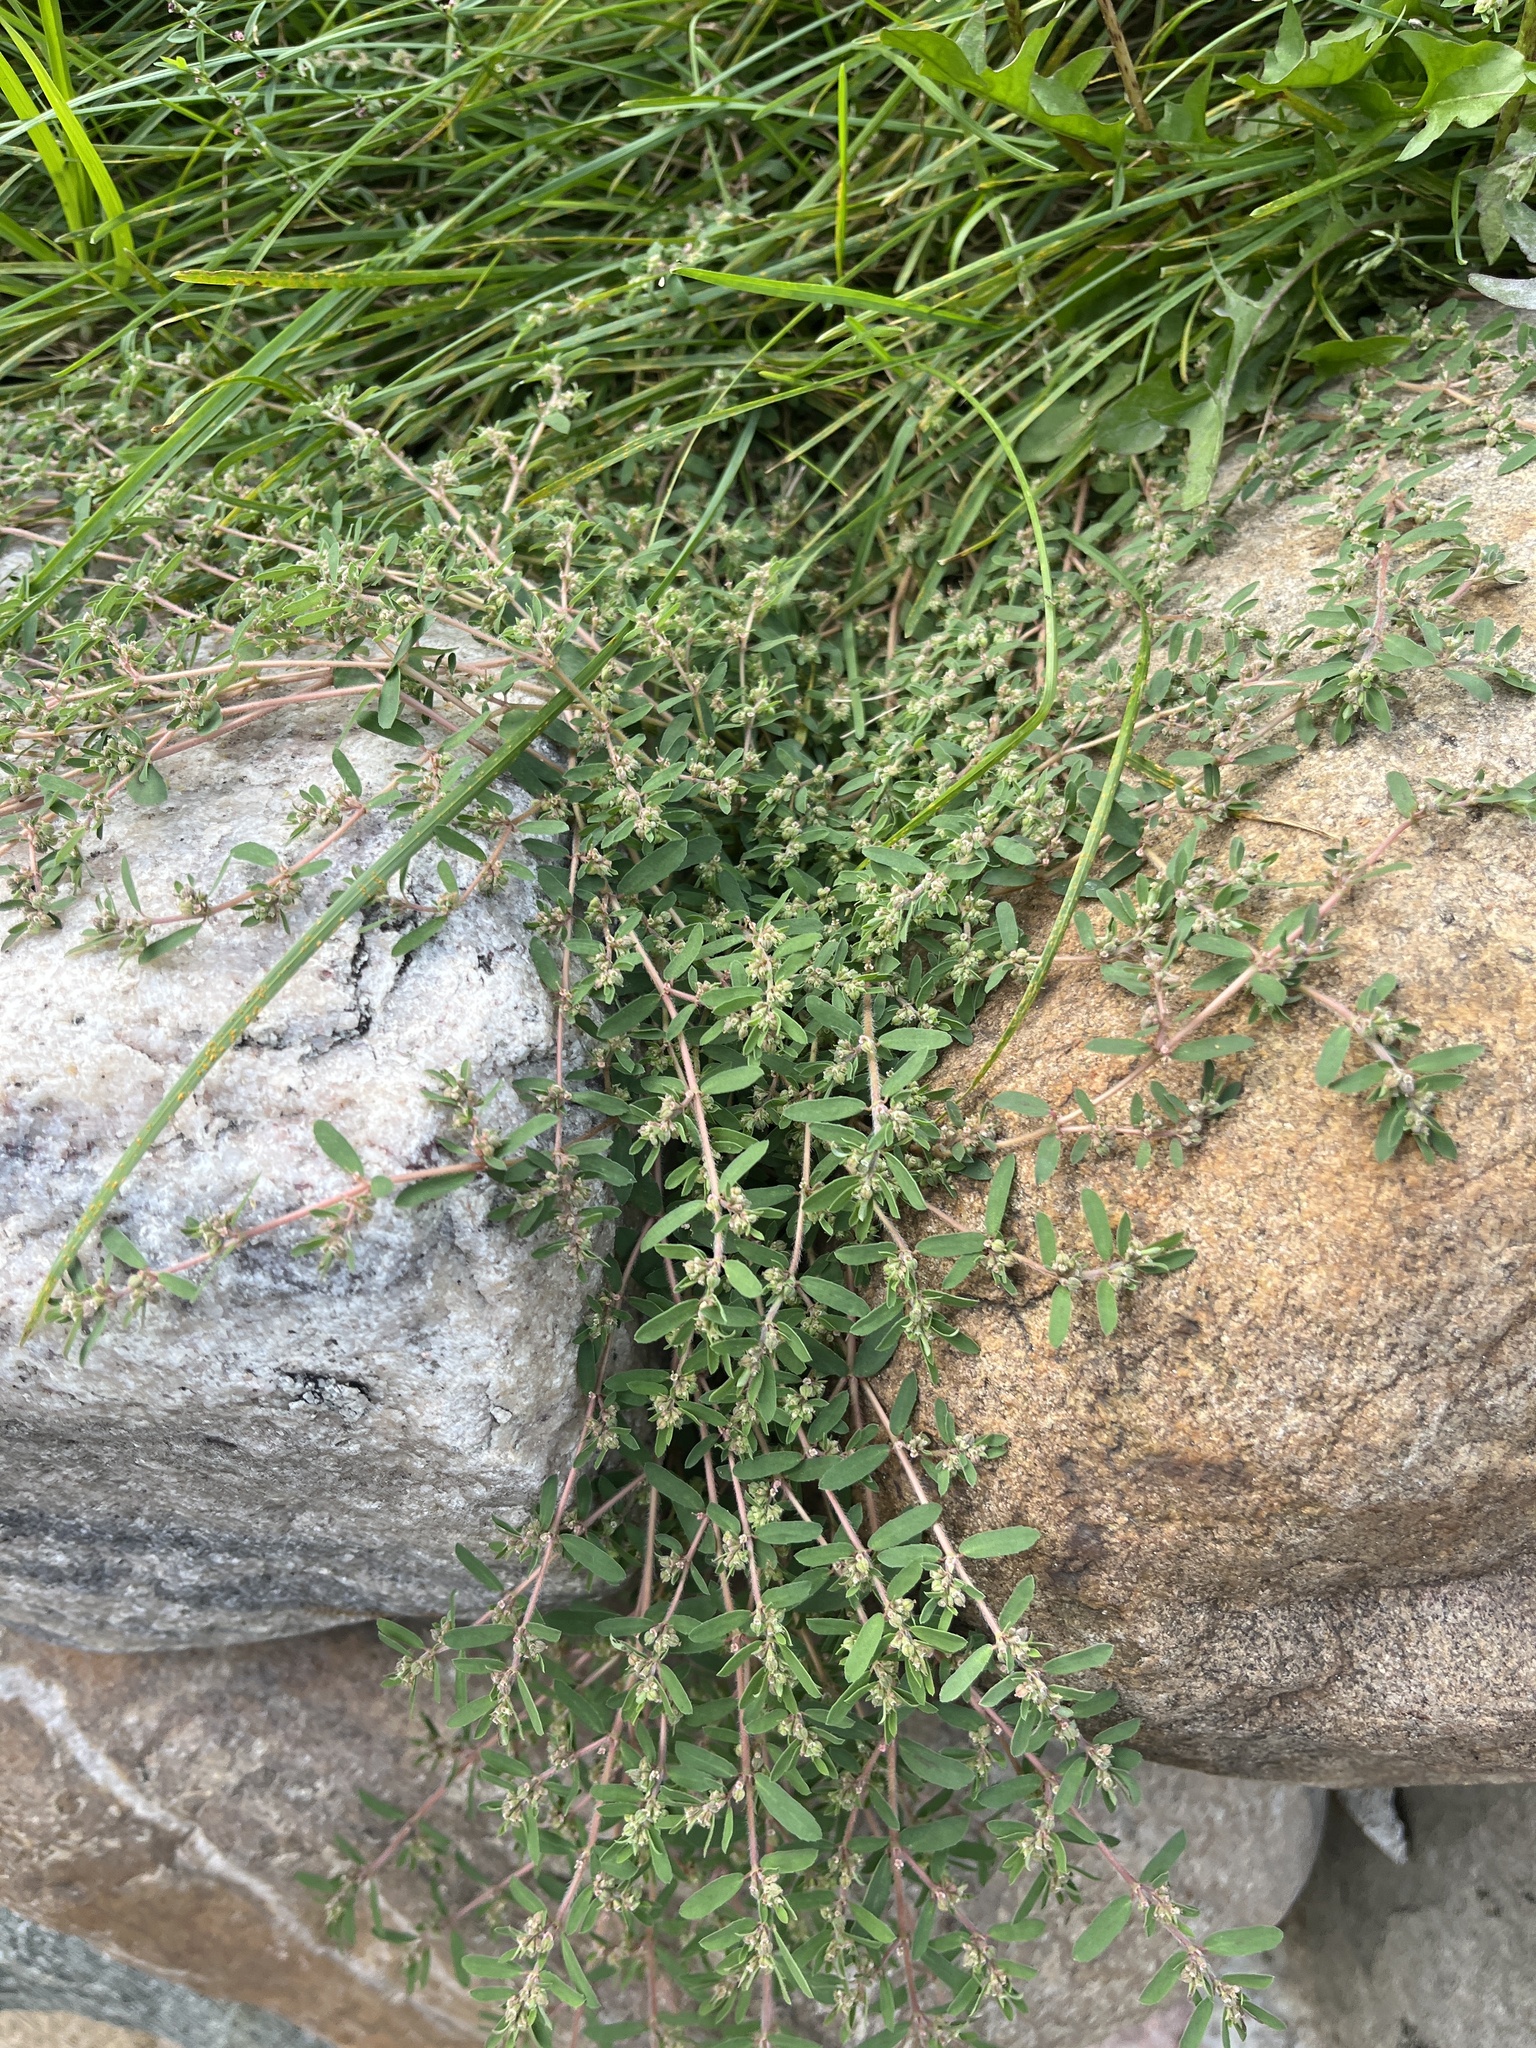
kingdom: Plantae
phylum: Tracheophyta
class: Magnoliopsida
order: Malpighiales
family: Euphorbiaceae
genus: Euphorbia
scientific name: Euphorbia maculata
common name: Spotted spurge
